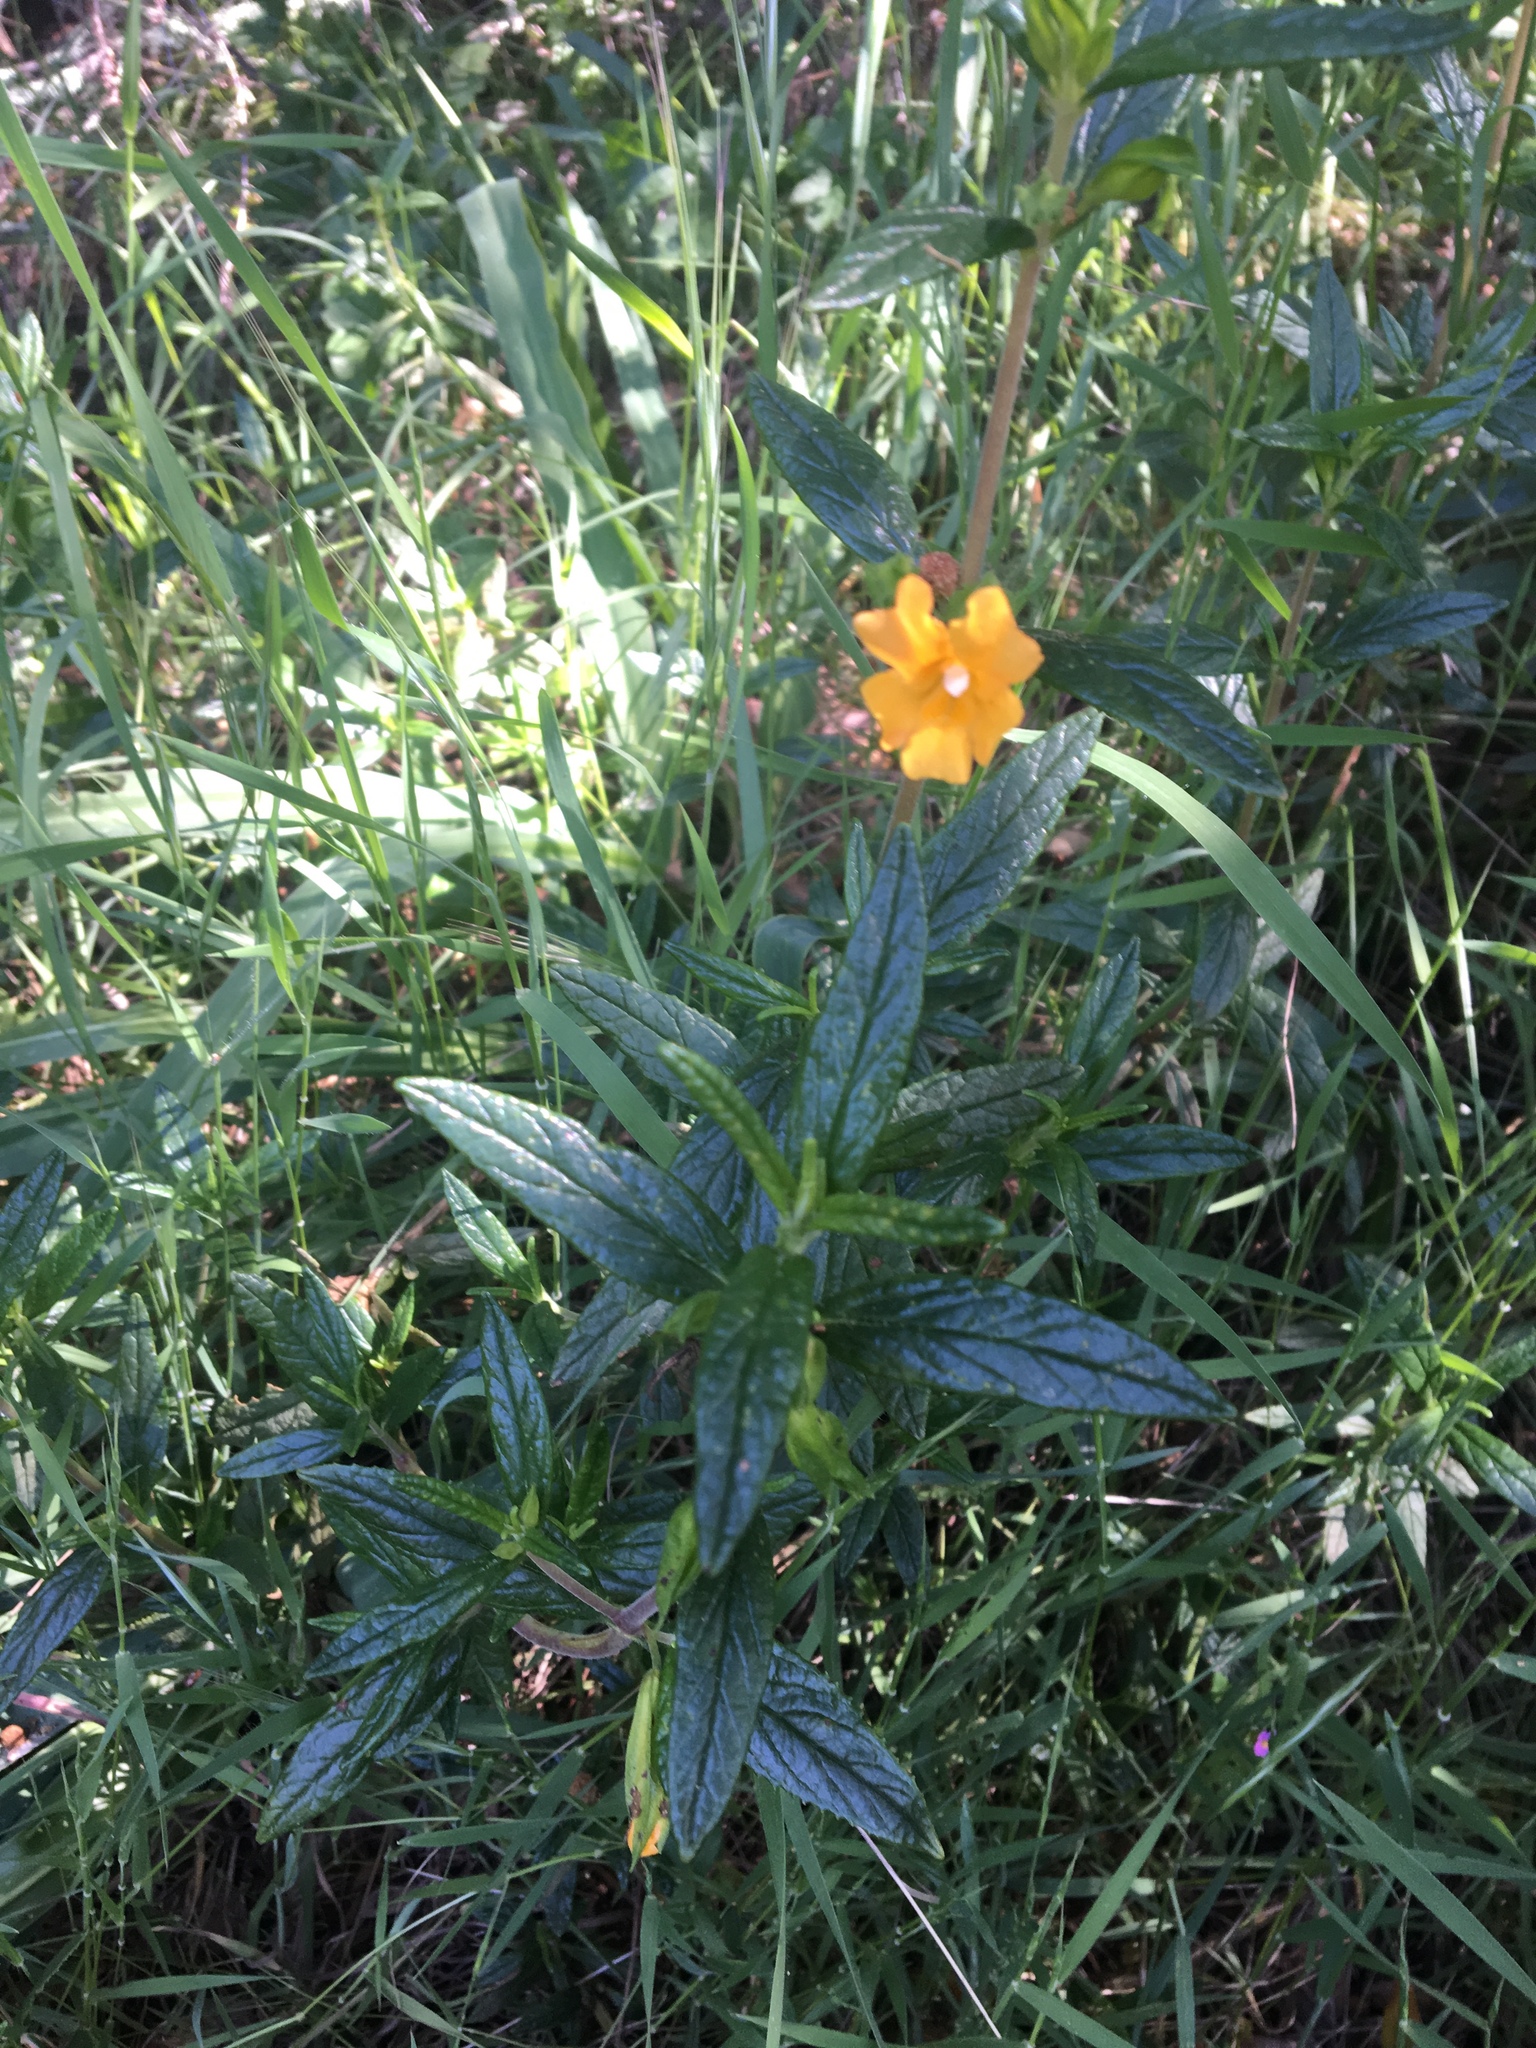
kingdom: Plantae
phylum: Tracheophyta
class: Magnoliopsida
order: Lamiales
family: Phrymaceae
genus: Diplacus
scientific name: Diplacus aurantiacus
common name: Bush monkey-flower
